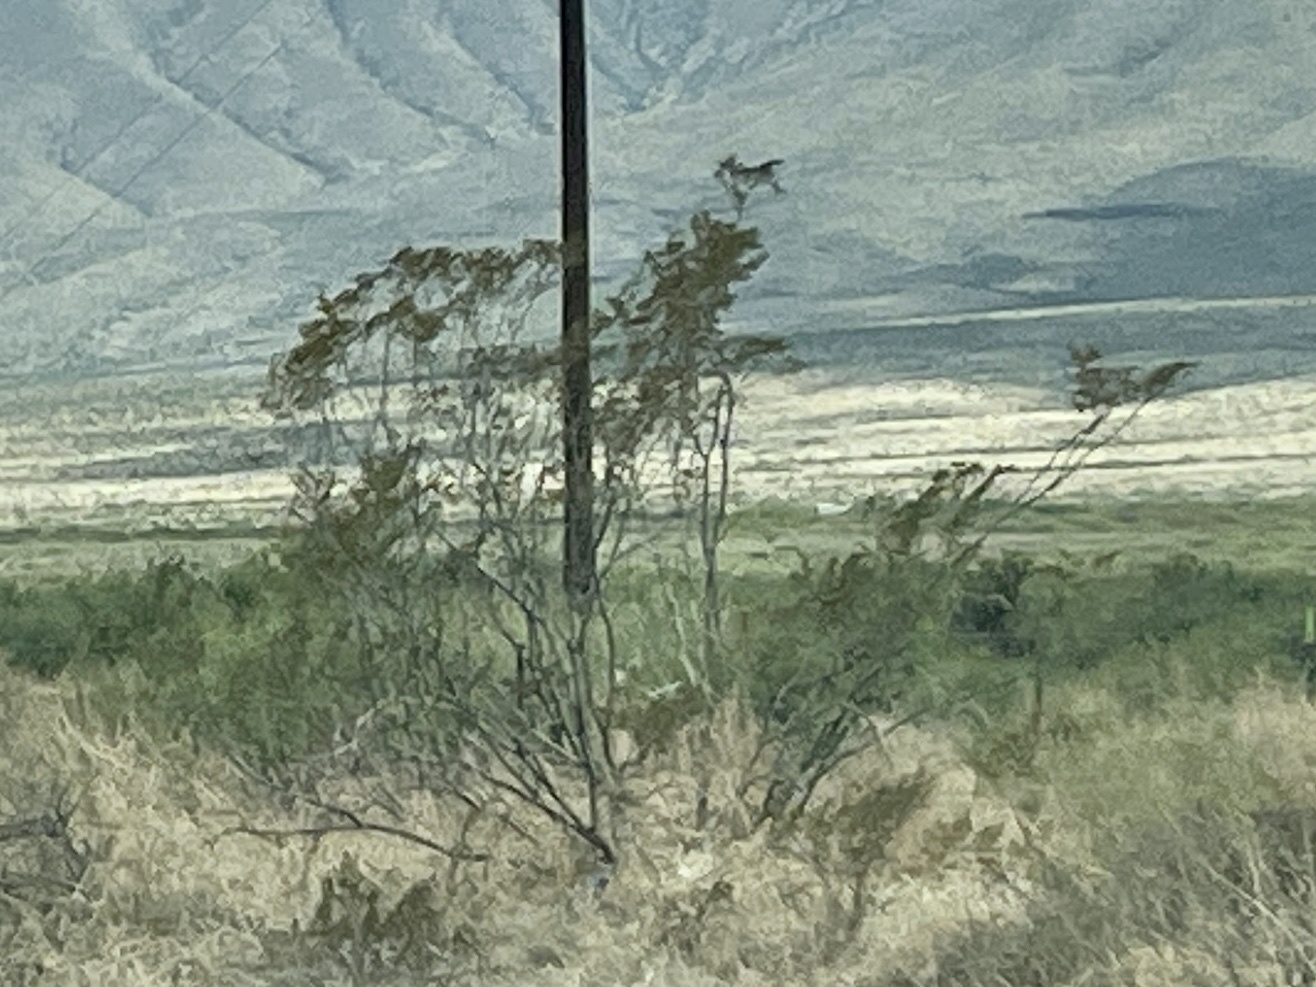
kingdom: Plantae
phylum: Tracheophyta
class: Magnoliopsida
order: Zygophyllales
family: Zygophyllaceae
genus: Larrea
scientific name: Larrea tridentata
